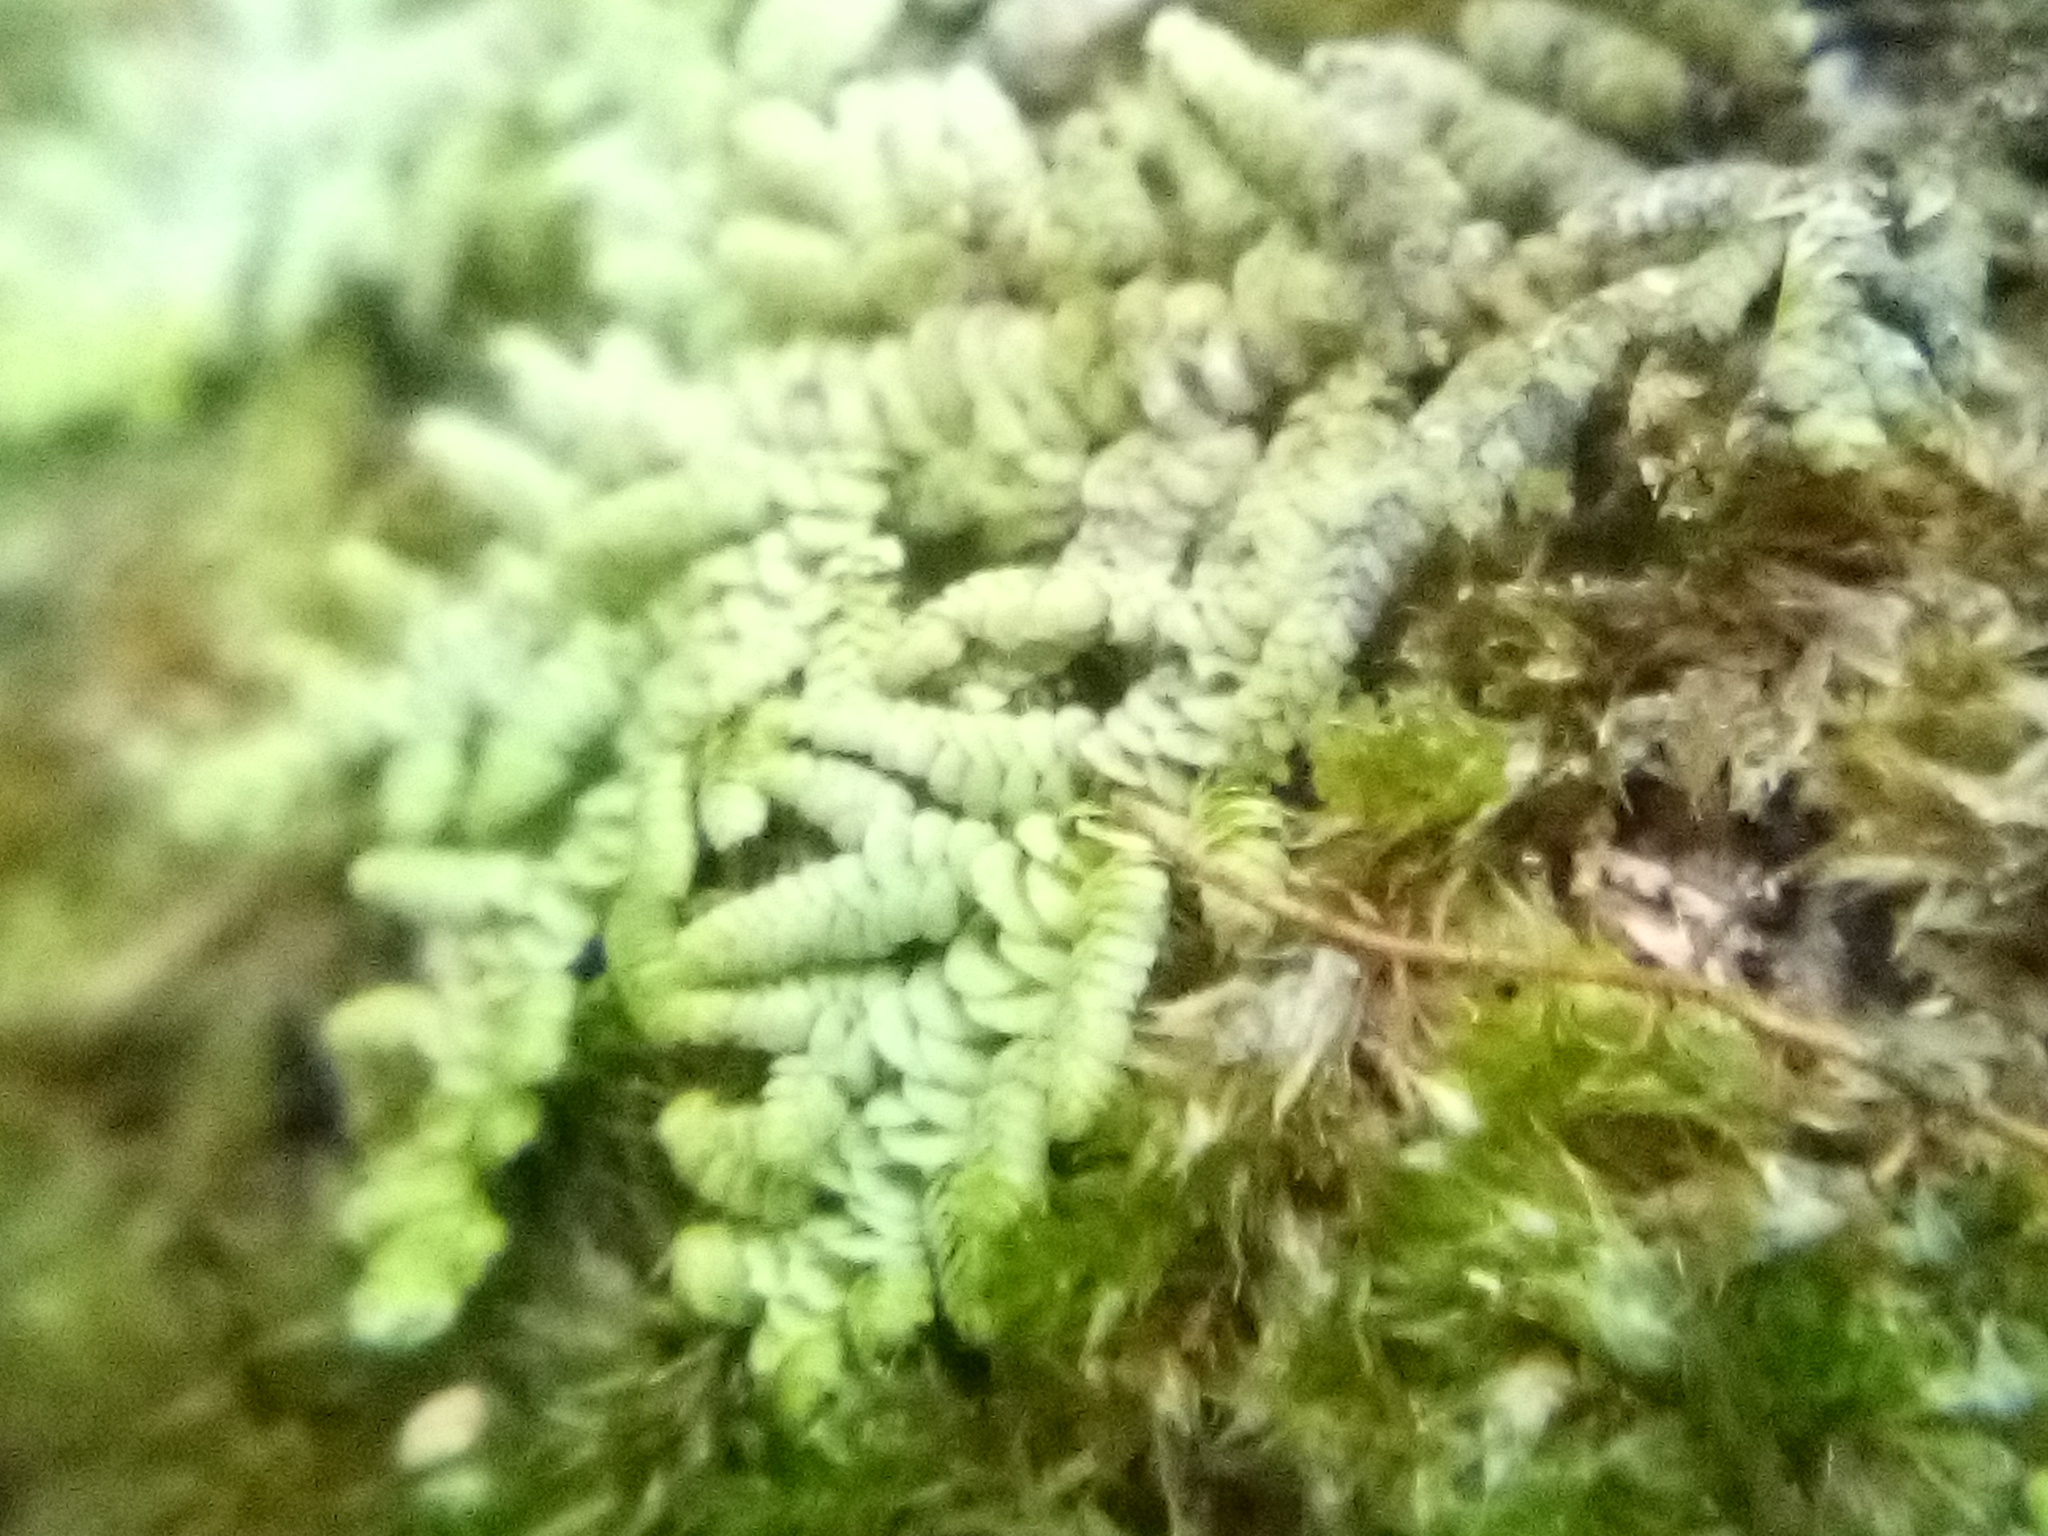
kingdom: Plantae
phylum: Marchantiophyta
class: Jungermanniopsida
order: Porellales
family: Lepidolaenaceae
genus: Lepidolaena
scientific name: Lepidolaena clavigera
